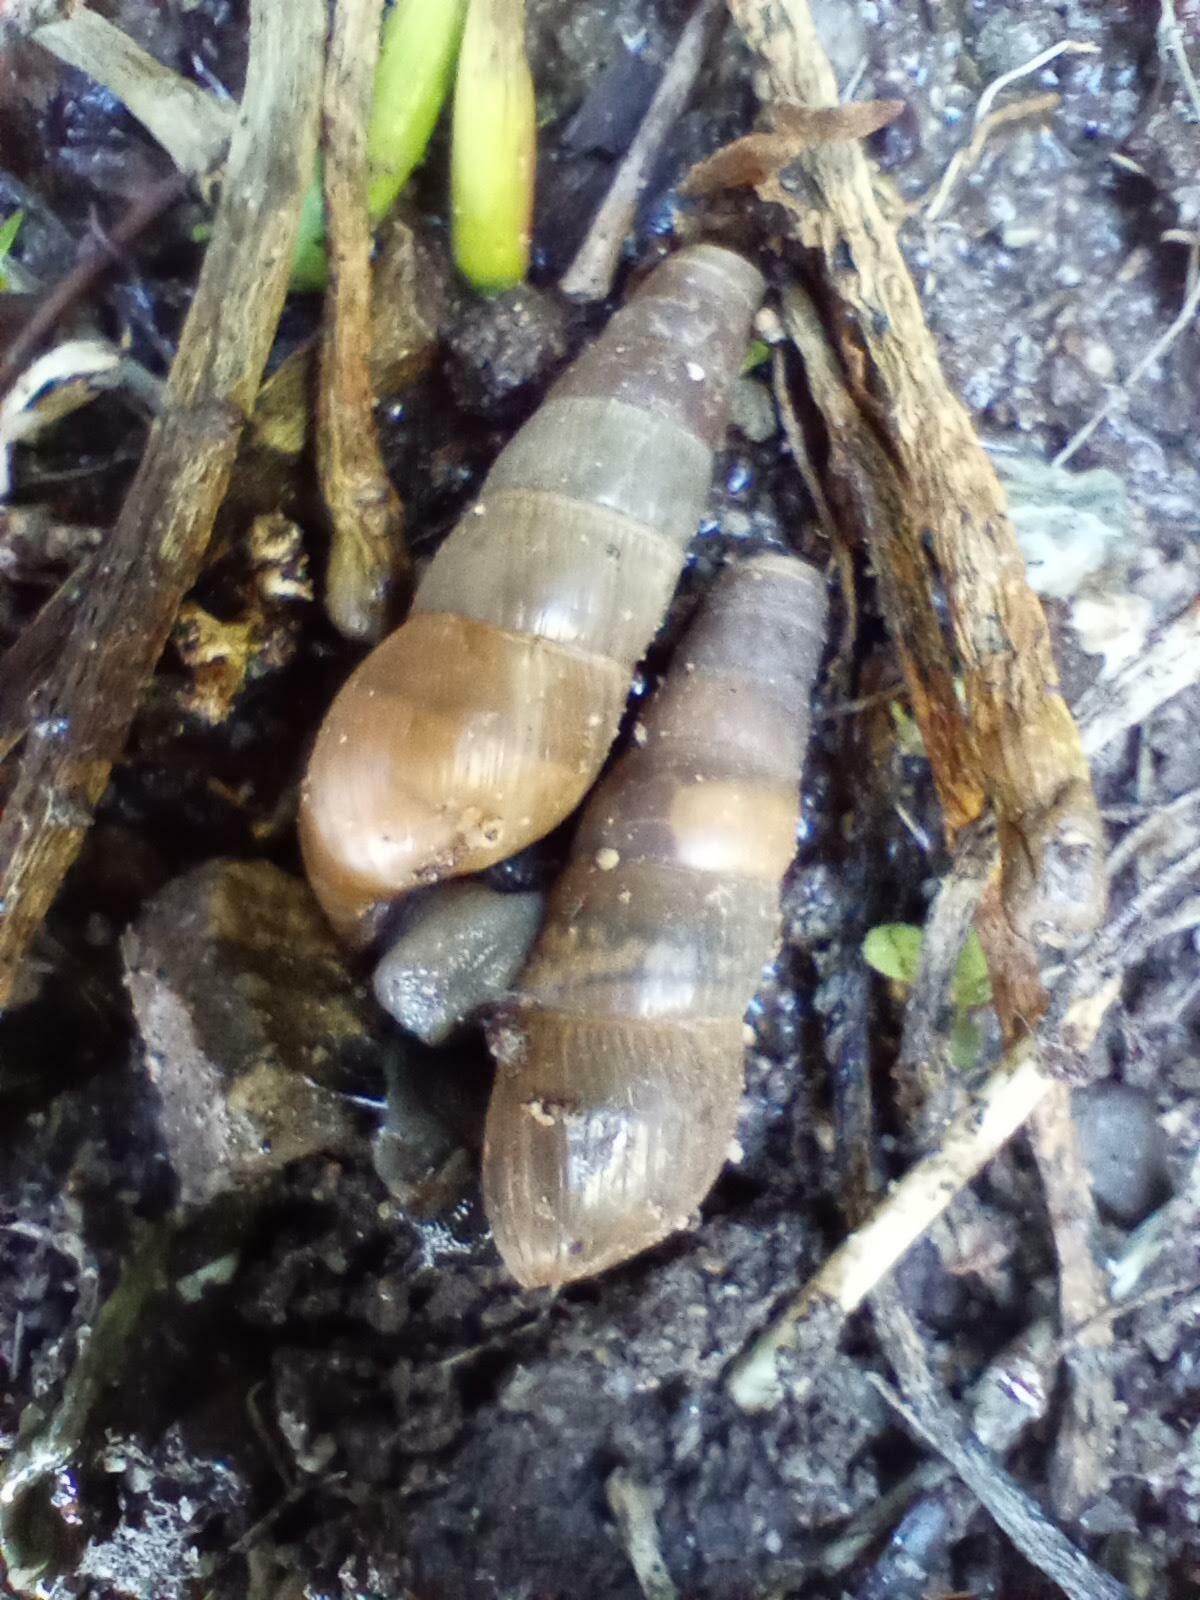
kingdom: Animalia
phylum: Mollusca
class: Gastropoda
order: Stylommatophora
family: Achatinidae
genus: Rumina
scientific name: Rumina decollata
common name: Decollate snail
